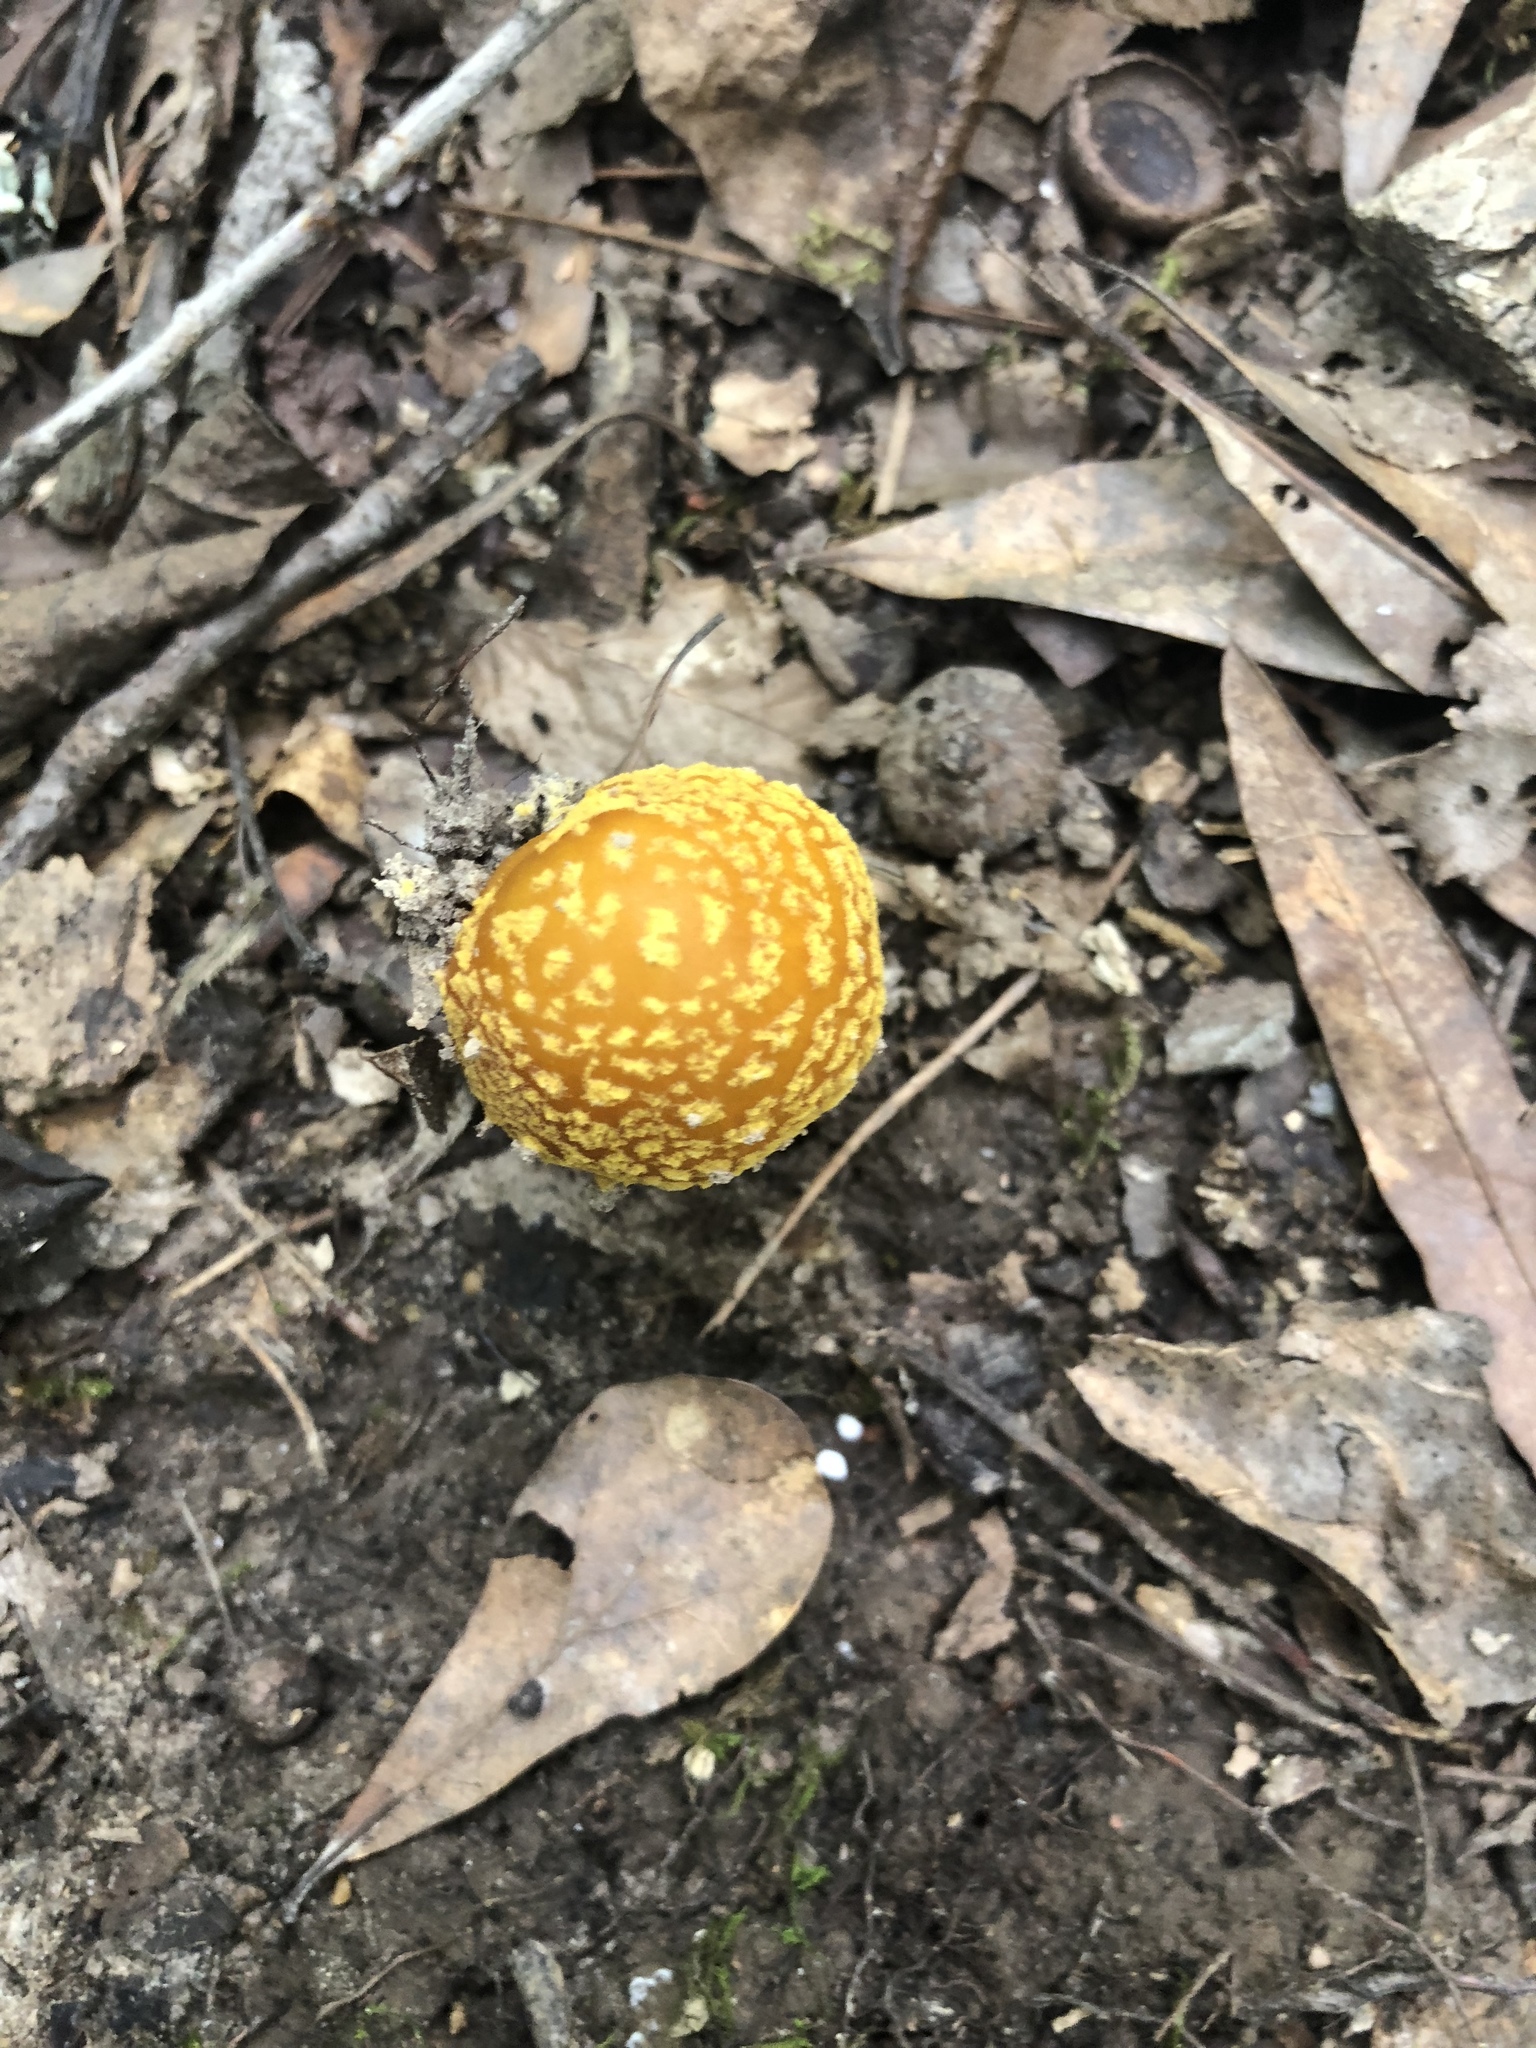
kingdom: Fungi
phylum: Basidiomycota
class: Agaricomycetes
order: Agaricales
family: Amanitaceae
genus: Amanita
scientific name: Amanita flavoconia
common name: Yellow patches
